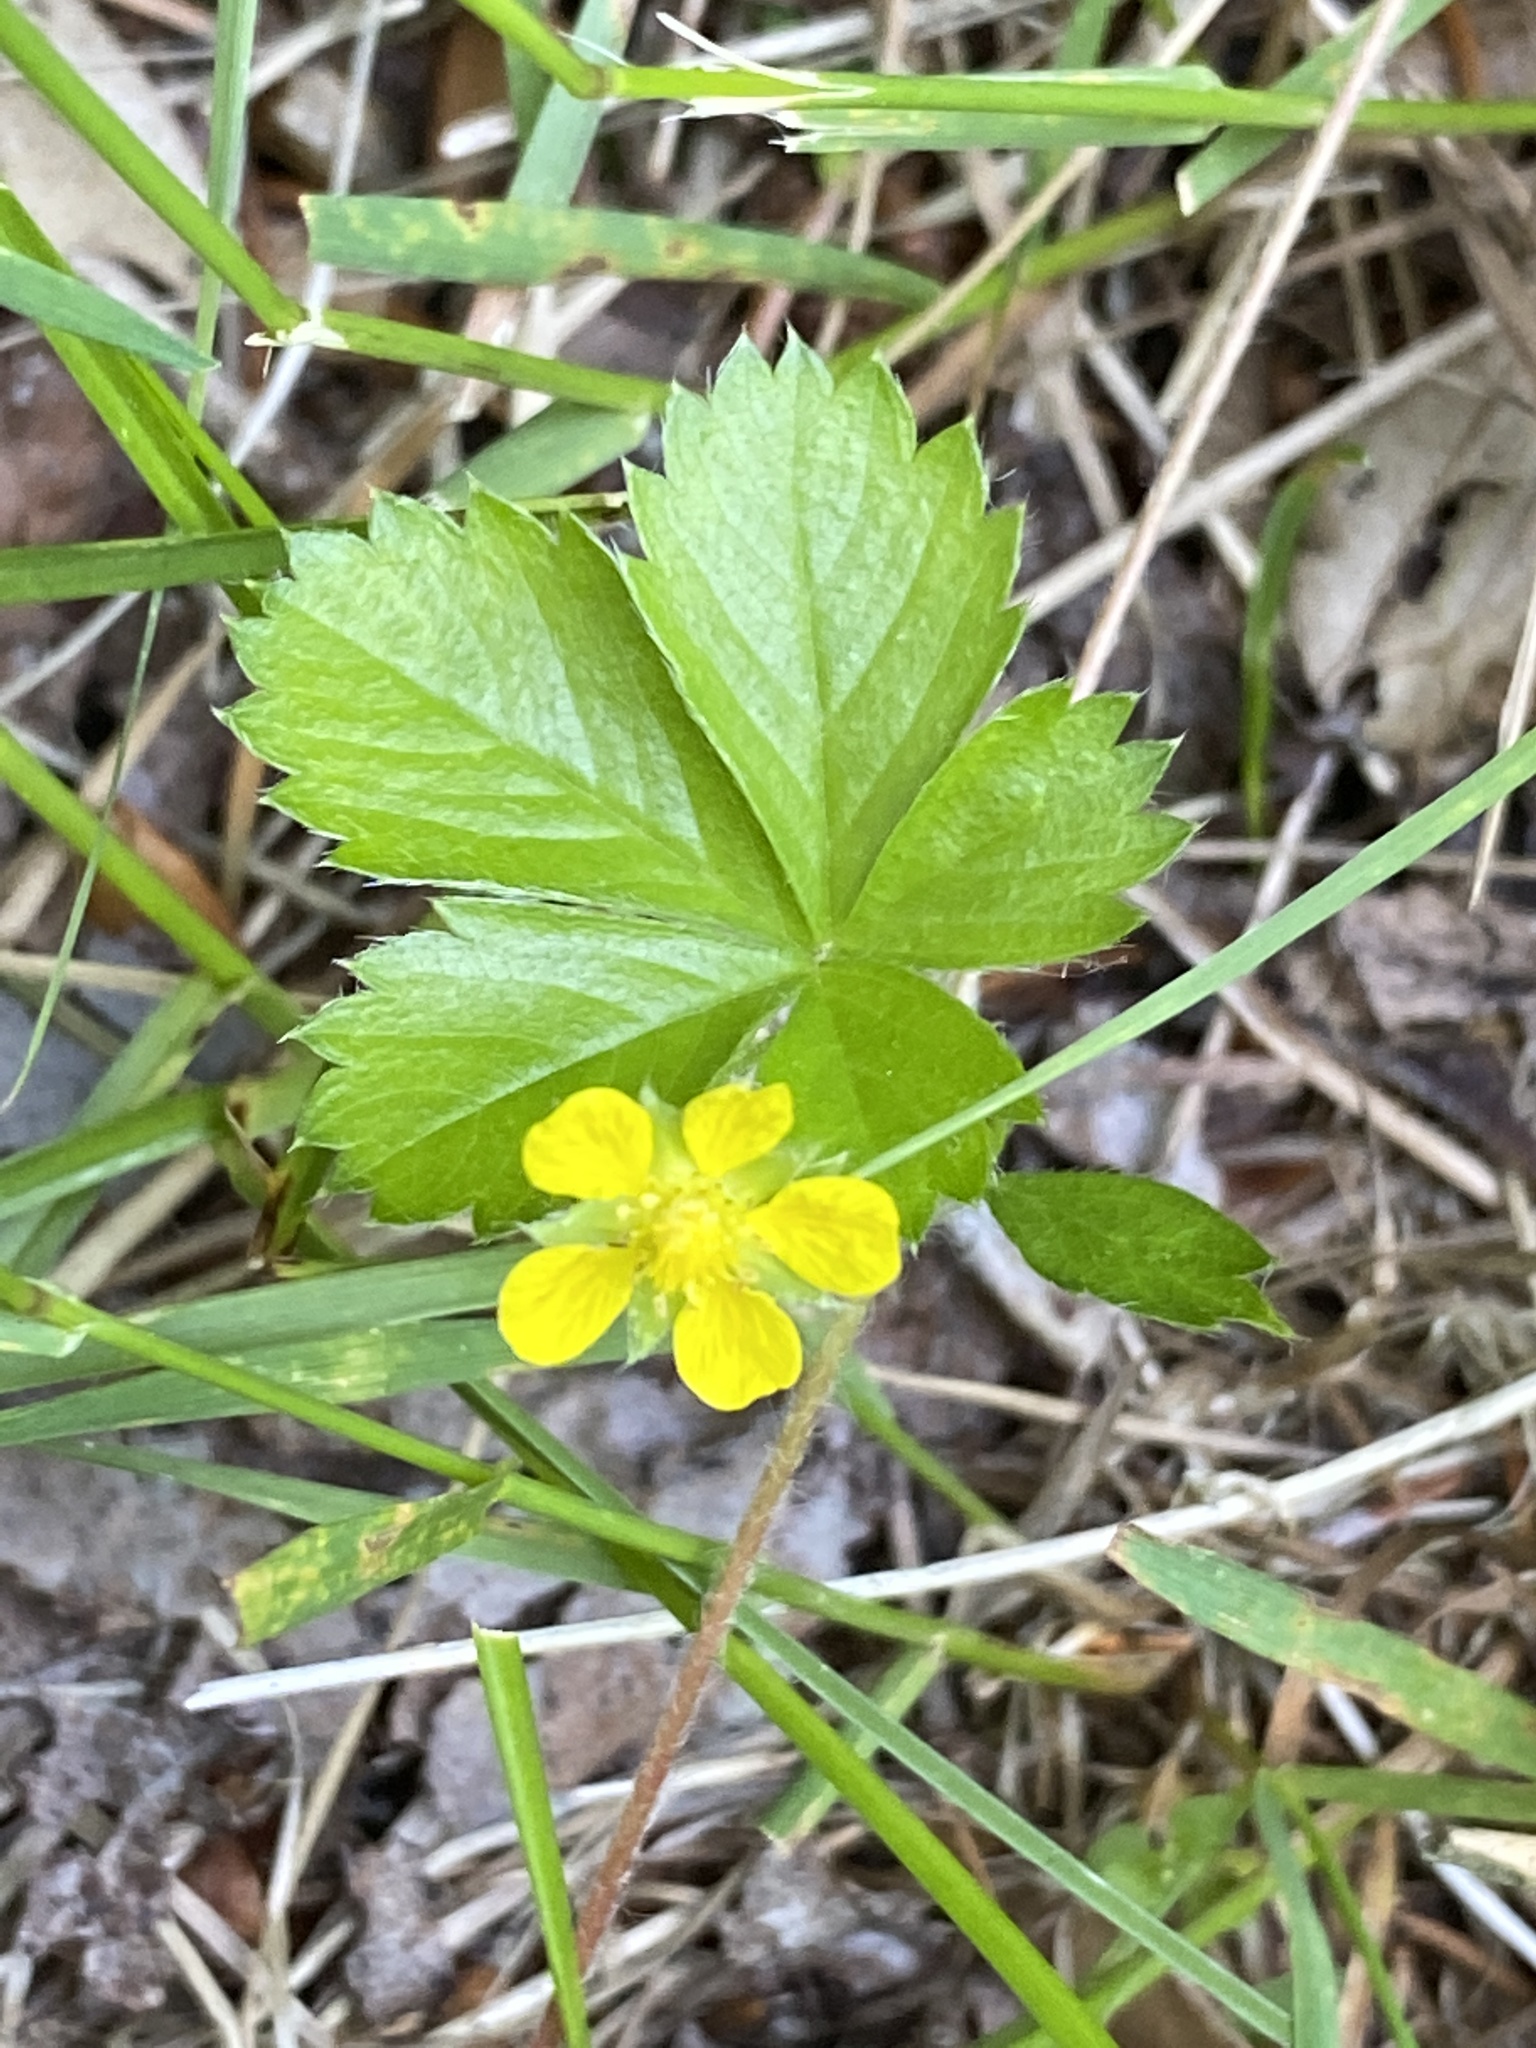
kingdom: Plantae
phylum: Tracheophyta
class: Magnoliopsida
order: Rosales
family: Rosaceae
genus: Potentilla
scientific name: Potentilla canadensis
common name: Canada cinquefoil
